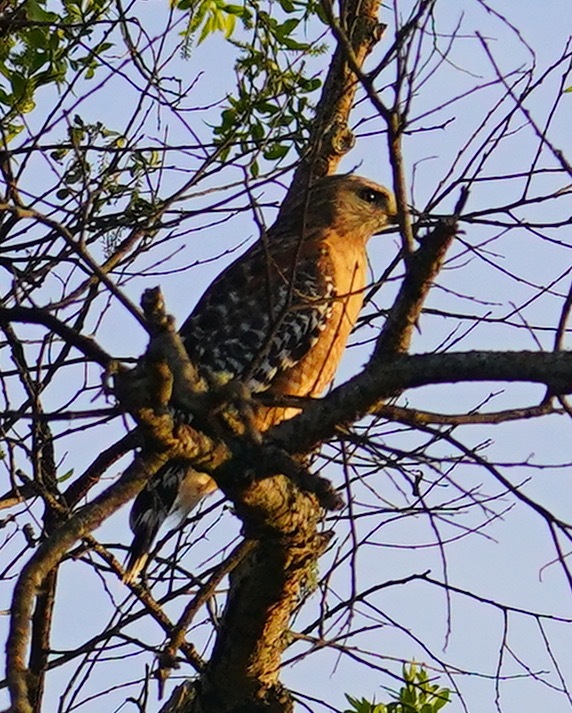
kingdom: Animalia
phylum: Chordata
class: Aves
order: Accipitriformes
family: Accipitridae
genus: Buteo
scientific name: Buteo lineatus
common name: Red-shouldered hawk
